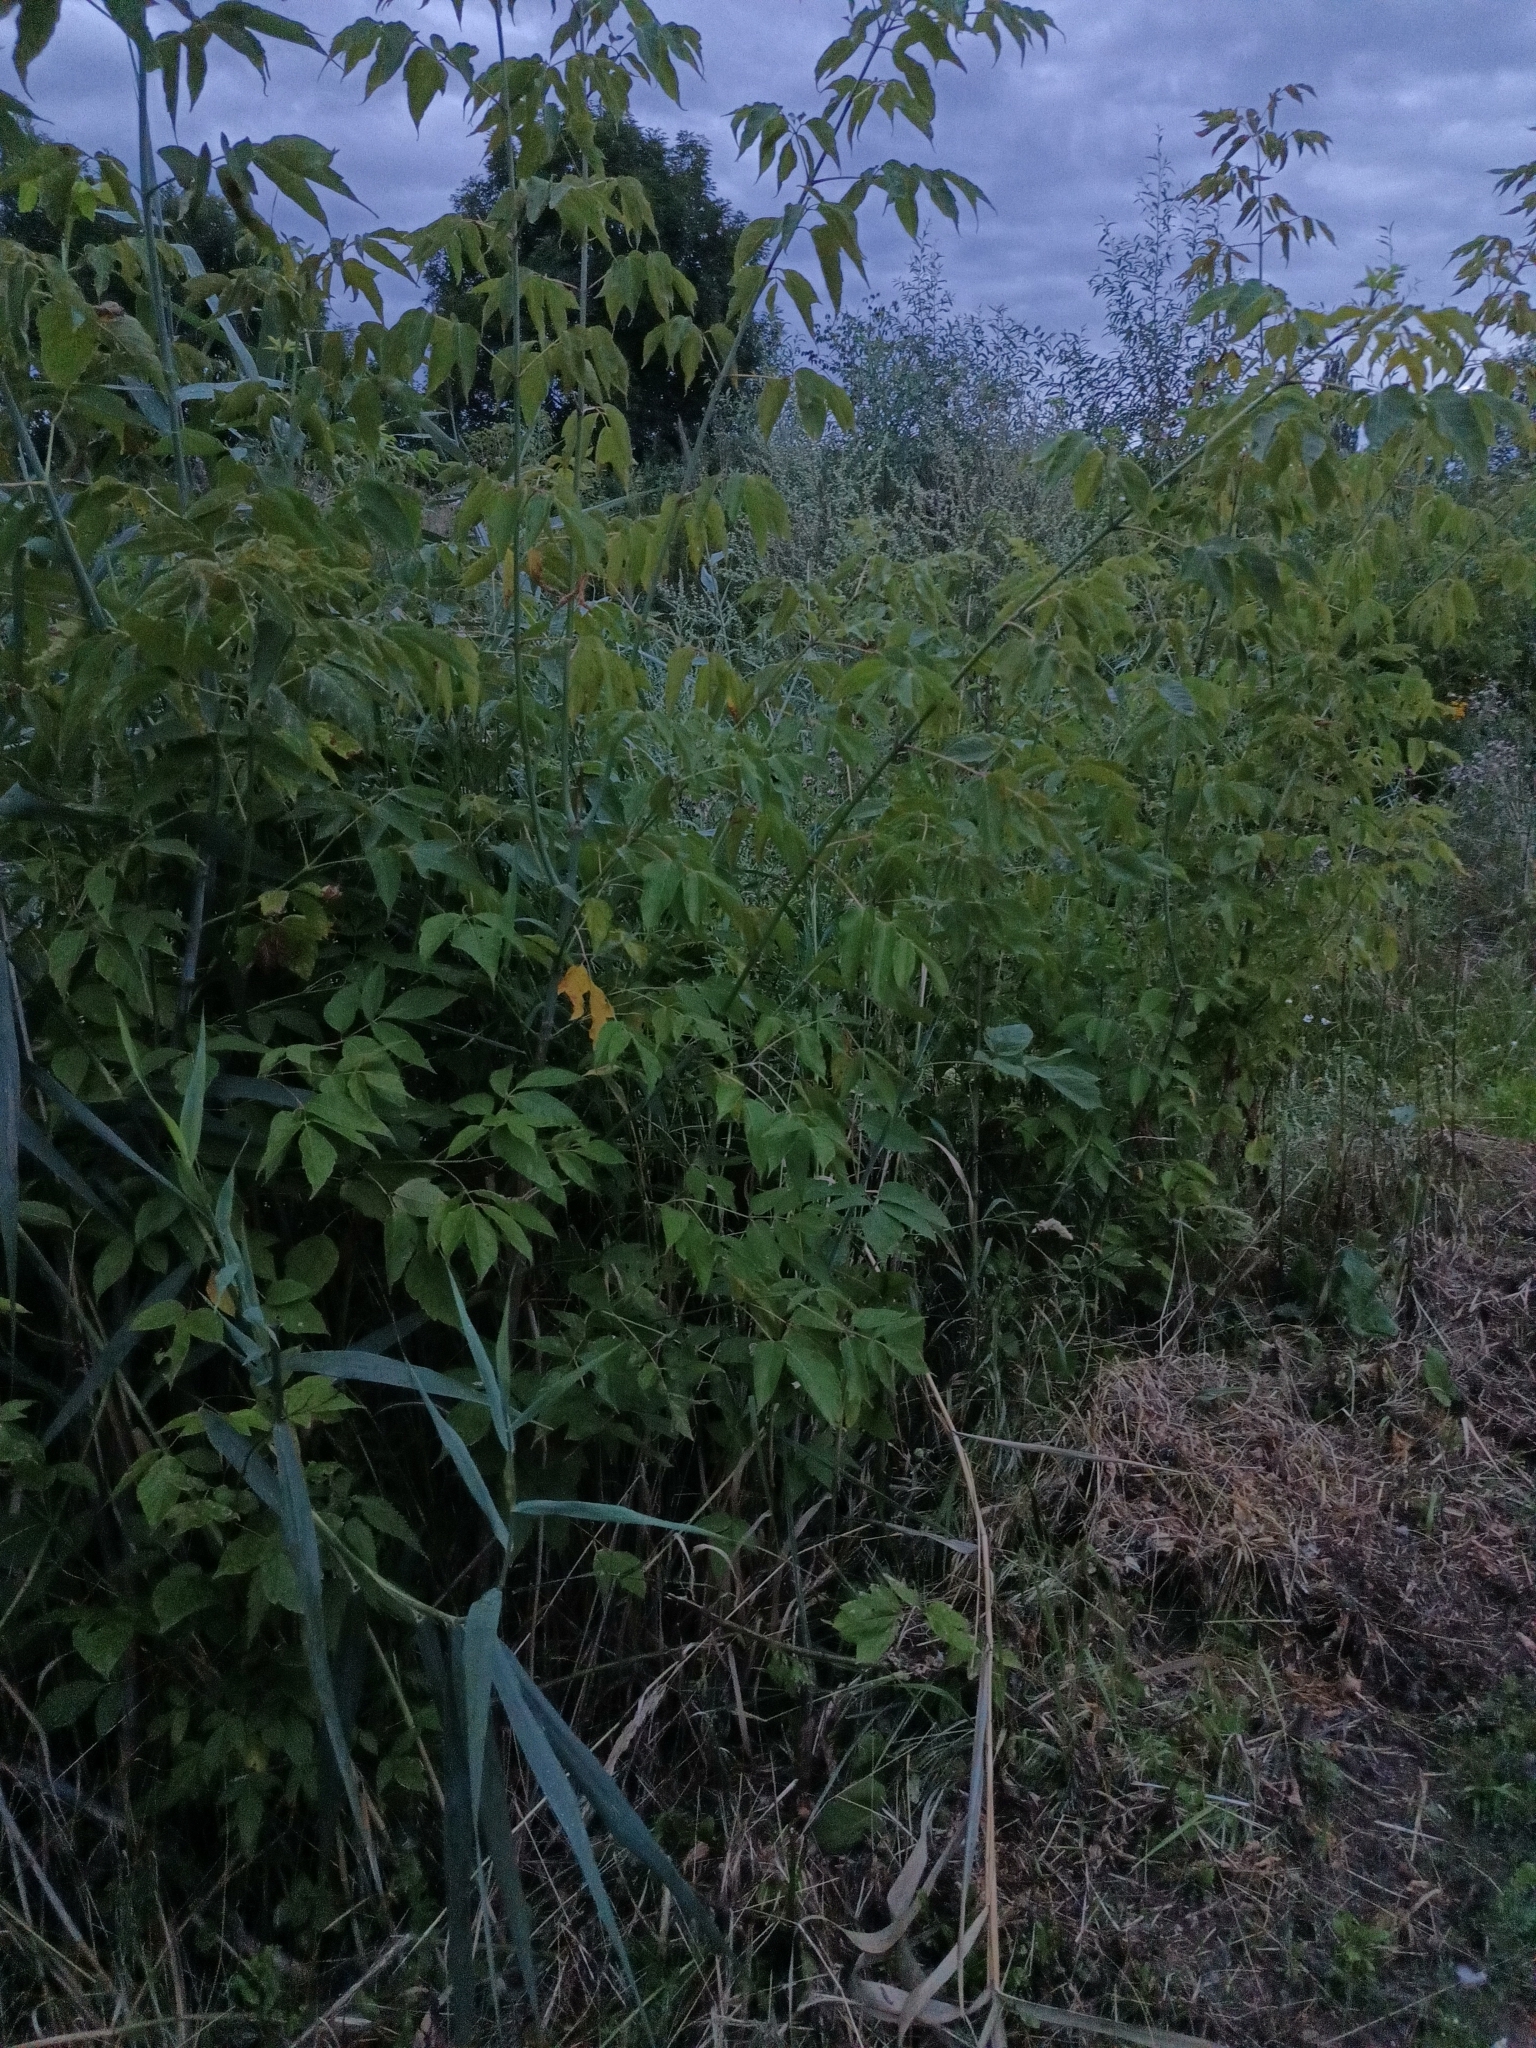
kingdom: Plantae
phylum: Tracheophyta
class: Magnoliopsida
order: Sapindales
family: Sapindaceae
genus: Acer
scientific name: Acer negundo
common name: Ashleaf maple
